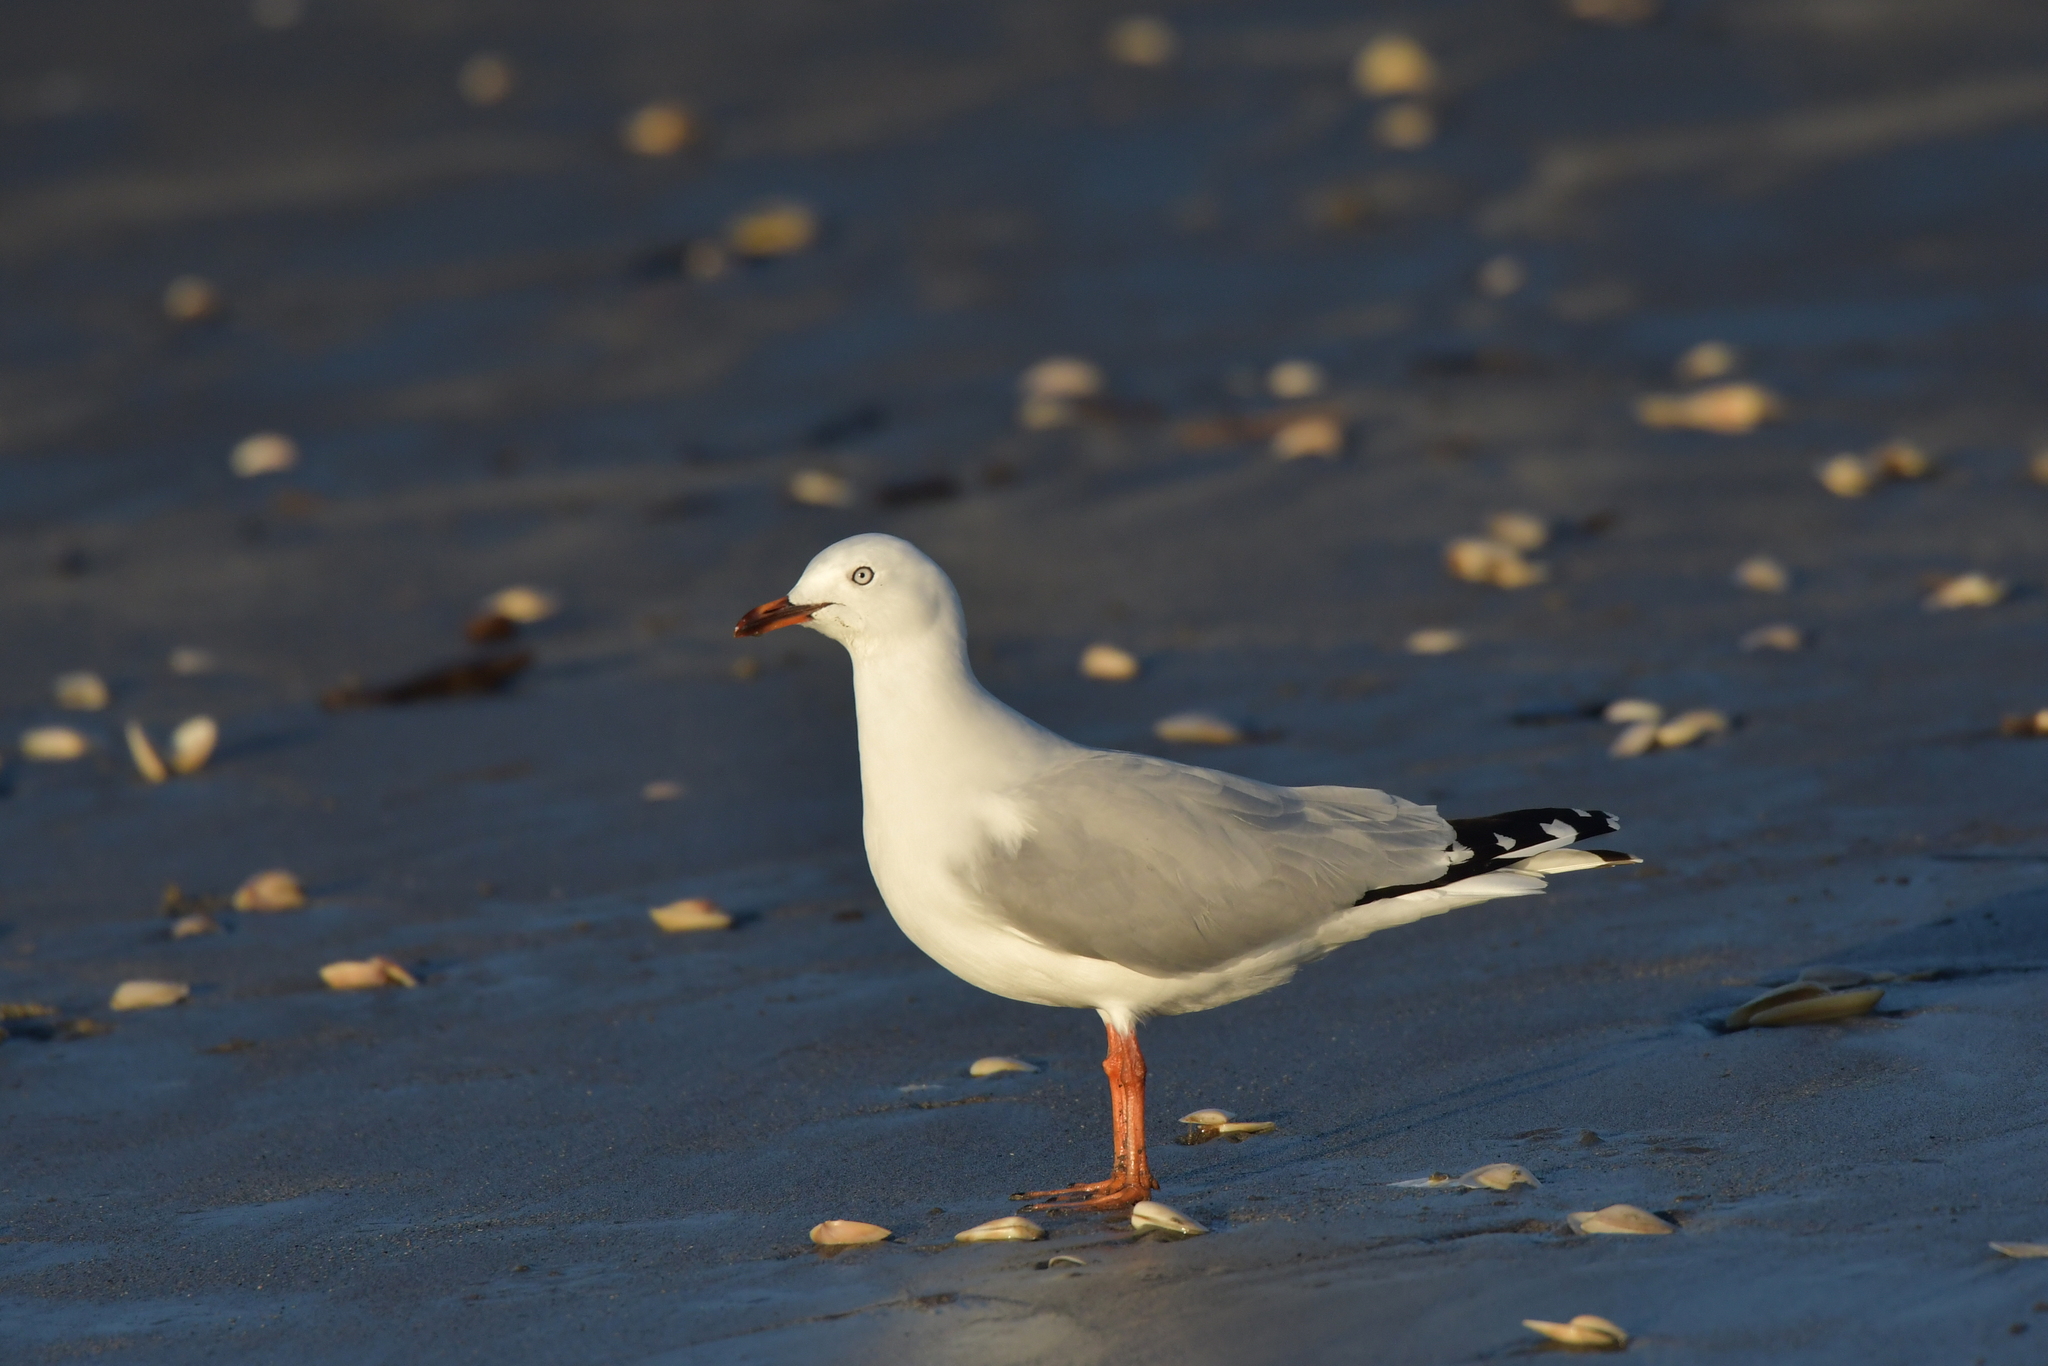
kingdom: Animalia
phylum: Chordata
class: Aves
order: Charadriiformes
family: Laridae
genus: Chroicocephalus
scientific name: Chroicocephalus novaehollandiae
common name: Silver gull
